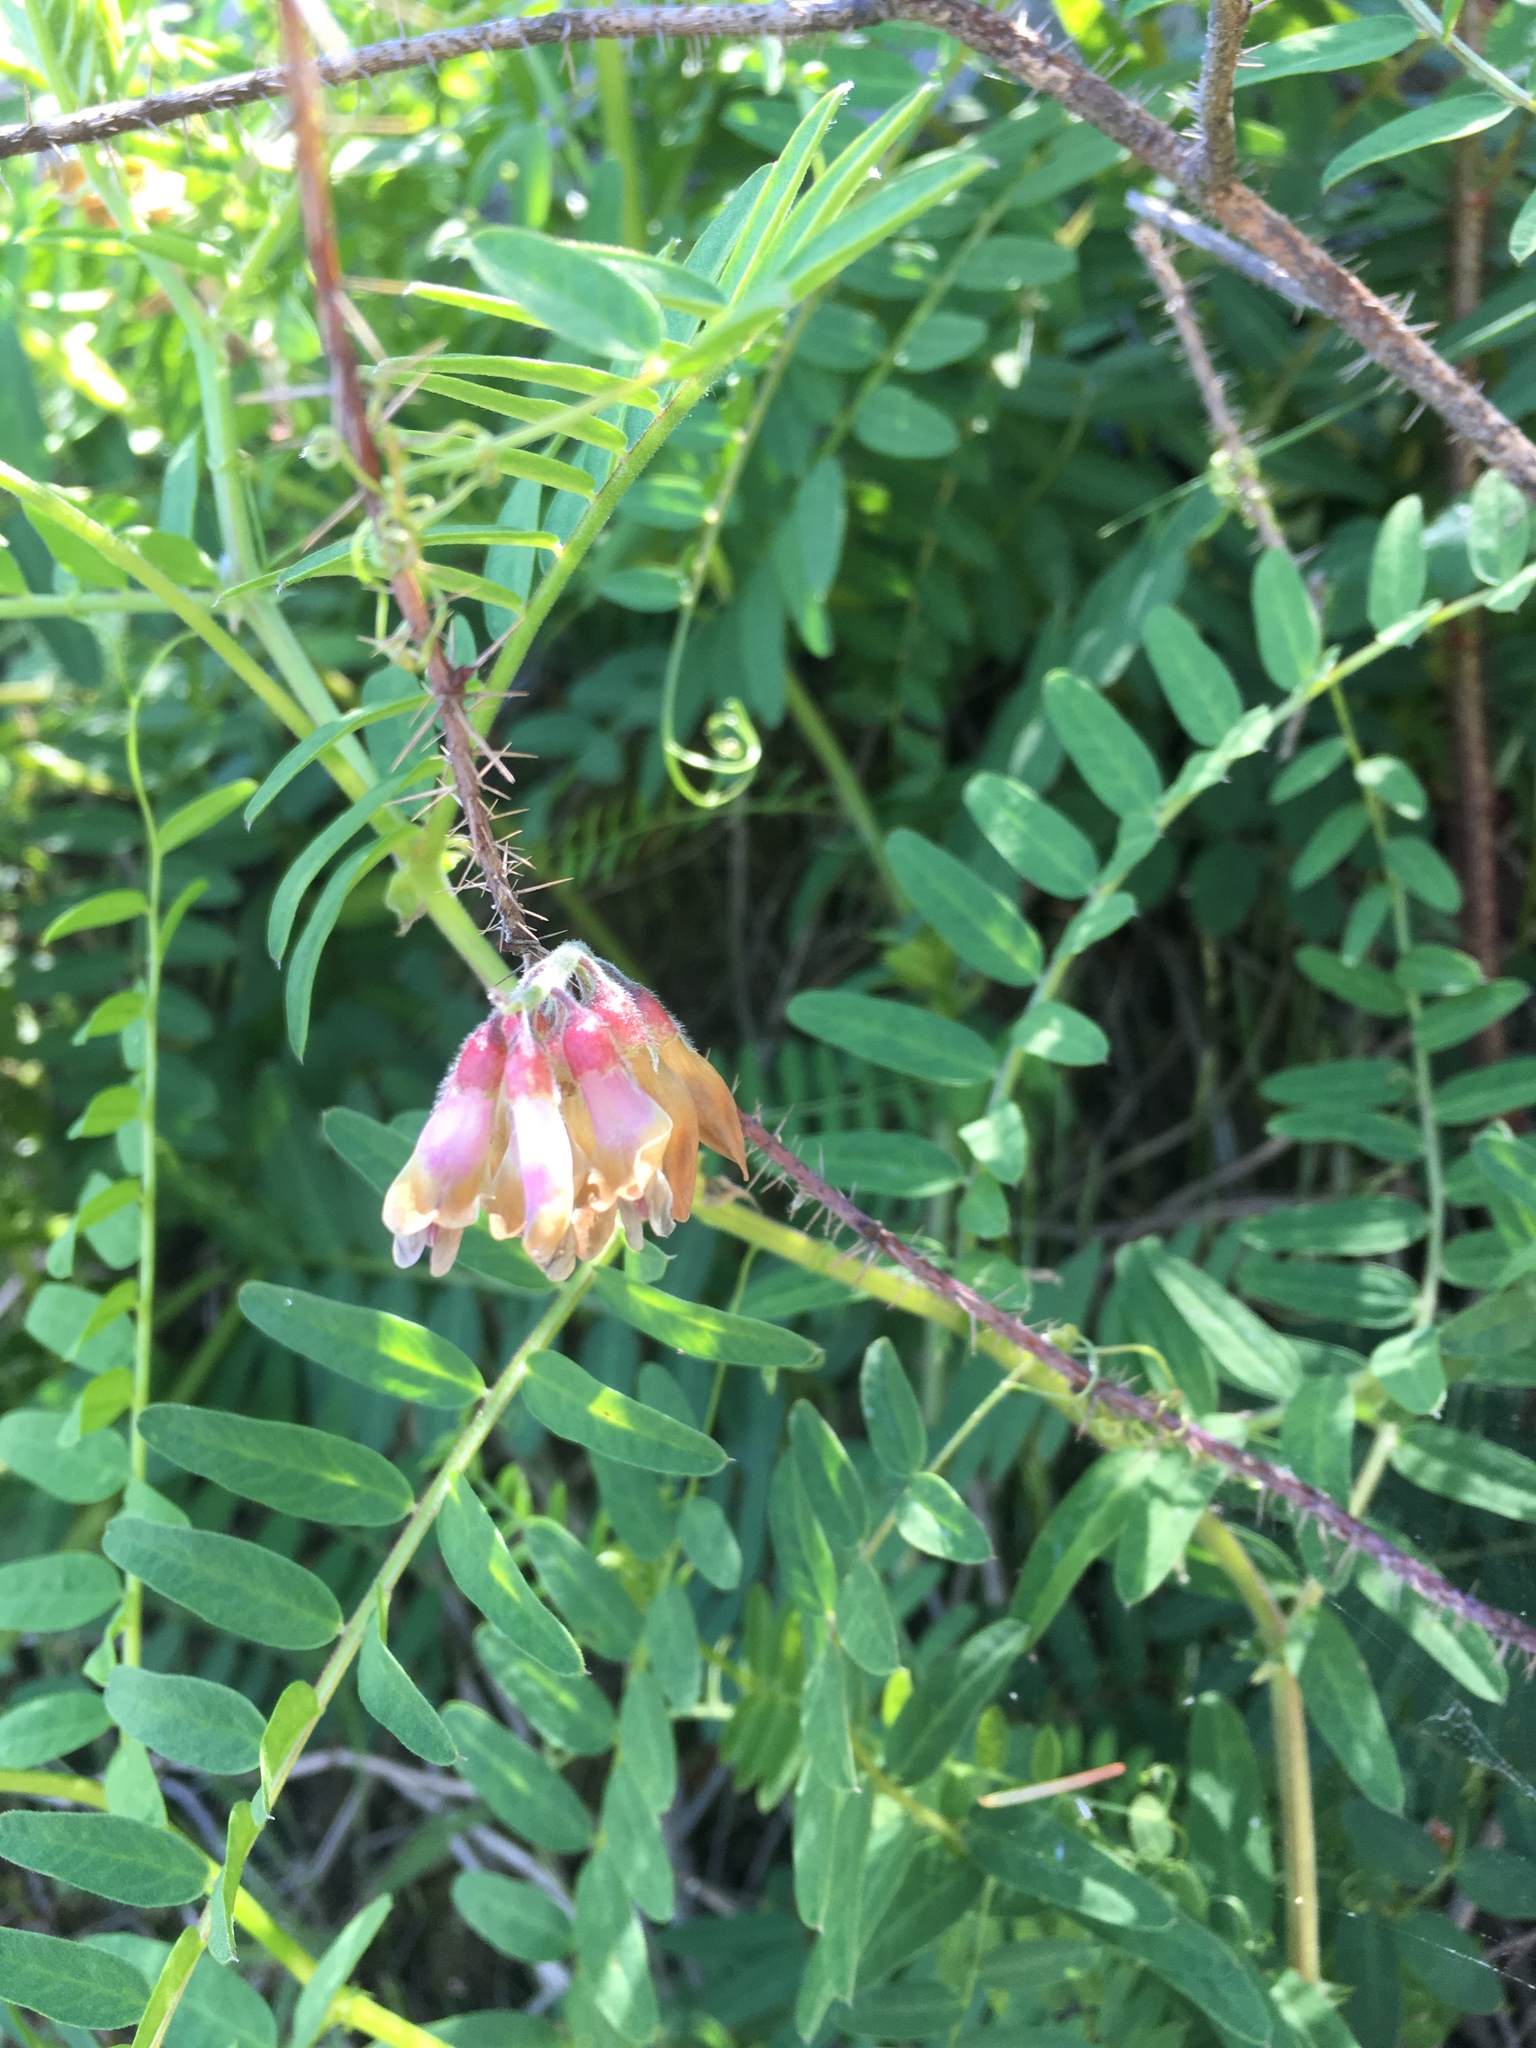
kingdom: Plantae
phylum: Tracheophyta
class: Magnoliopsida
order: Fabales
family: Fabaceae
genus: Vicia
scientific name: Vicia
